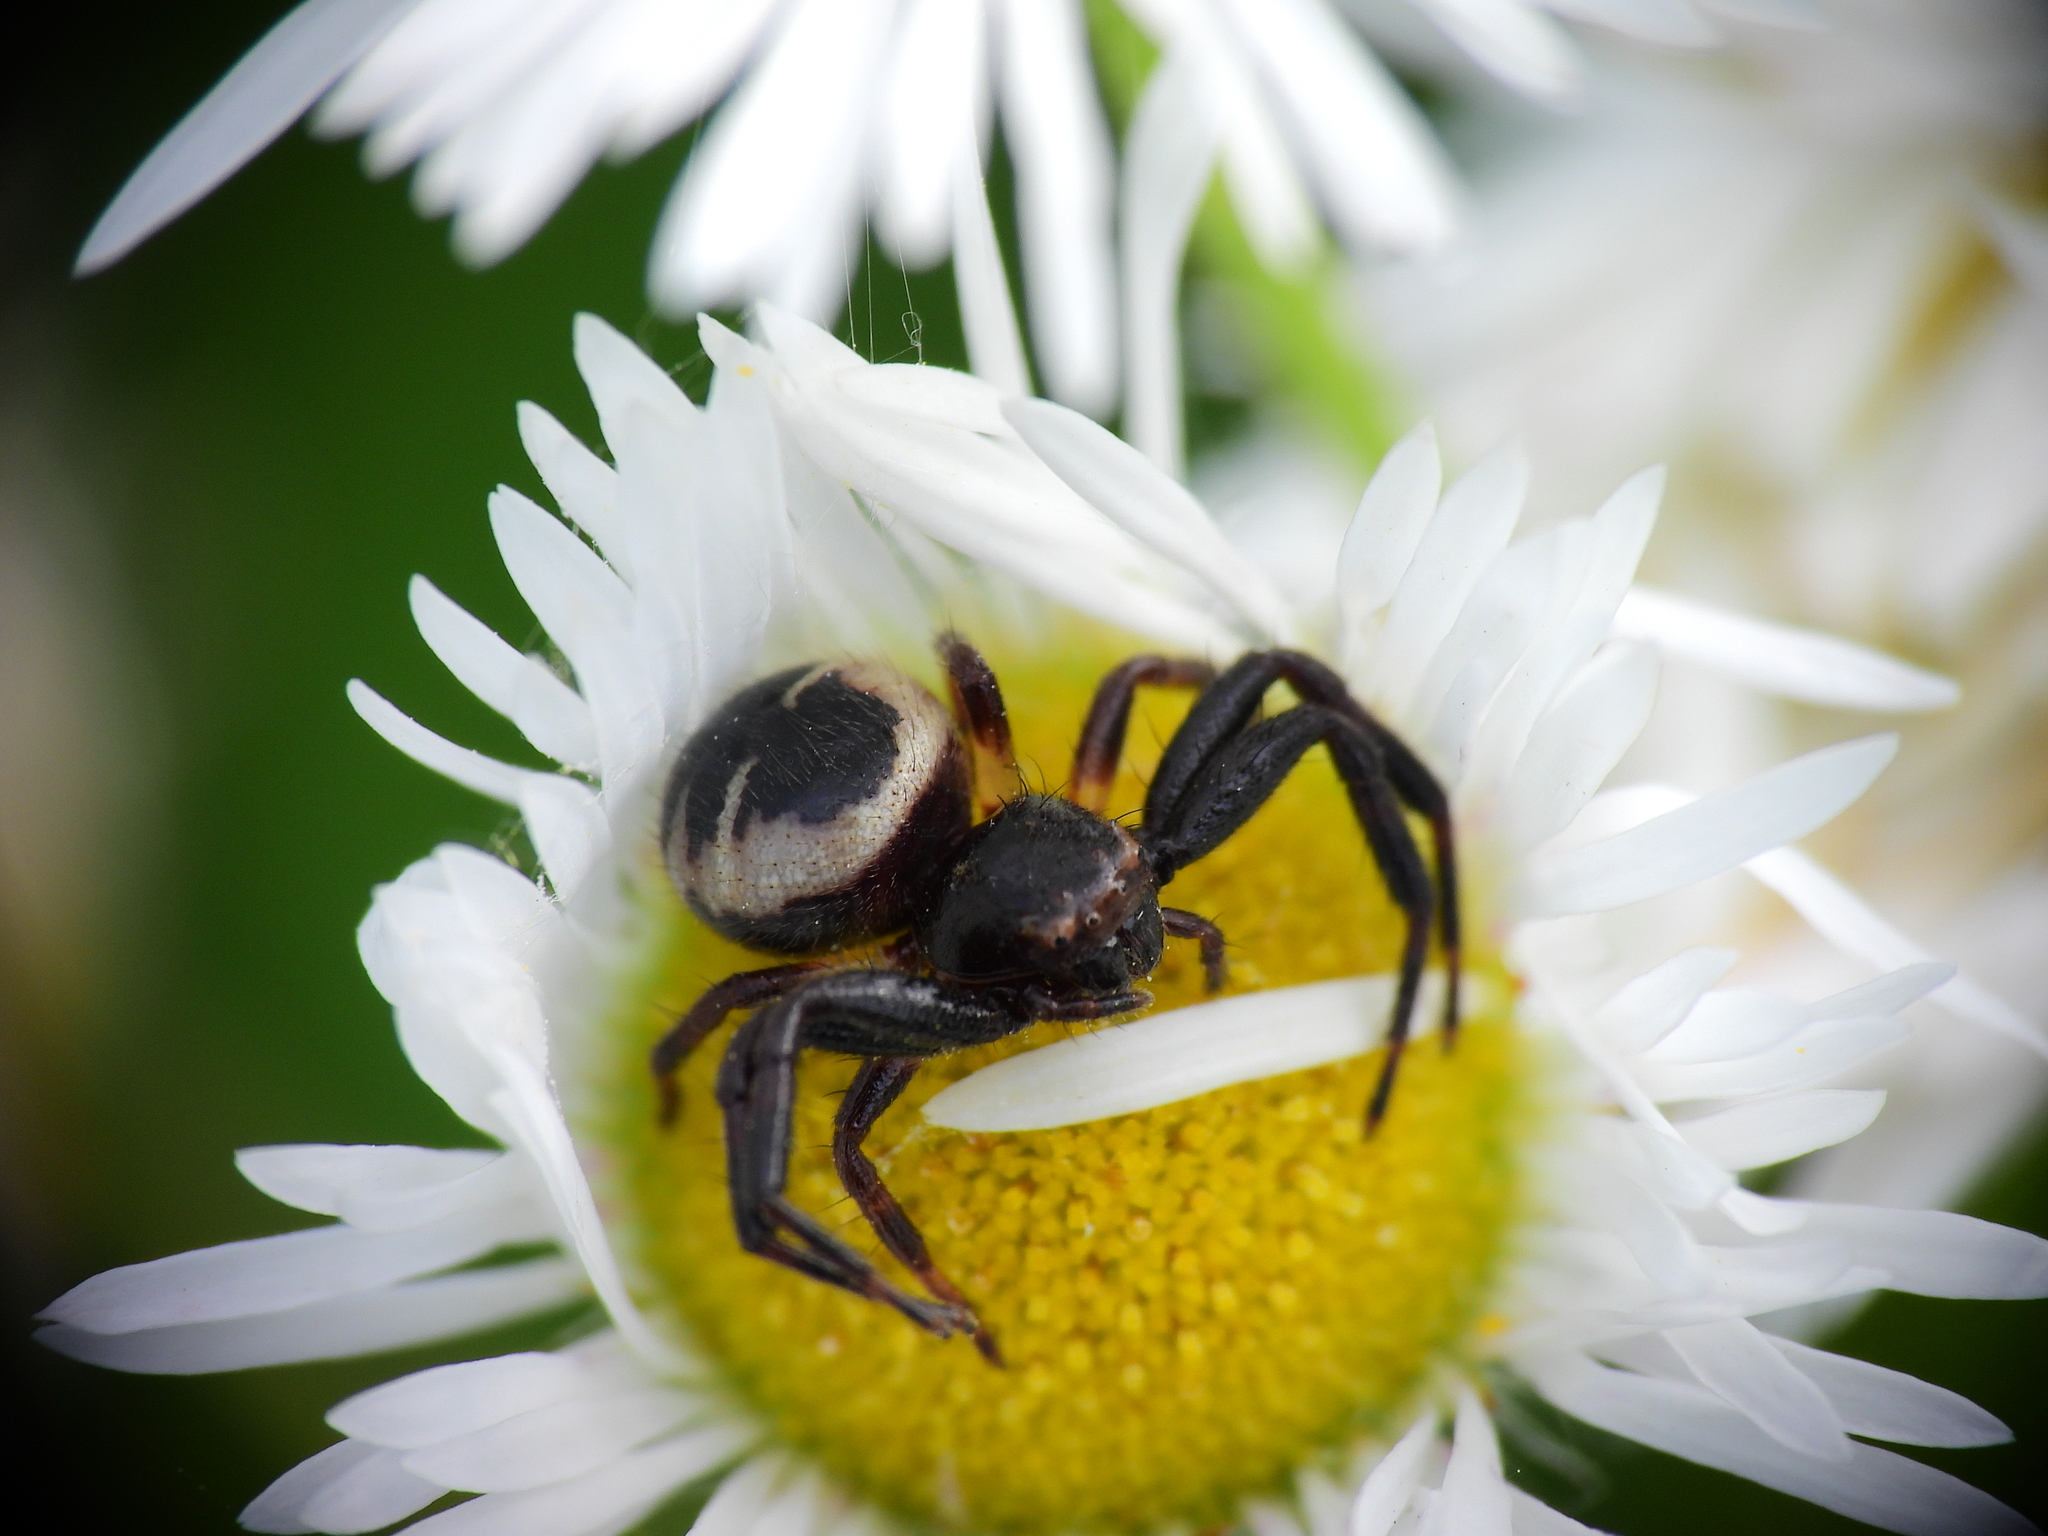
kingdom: Animalia
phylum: Arthropoda
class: Arachnida
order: Araneae
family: Thomisidae
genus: Synema
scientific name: Synema globosum
